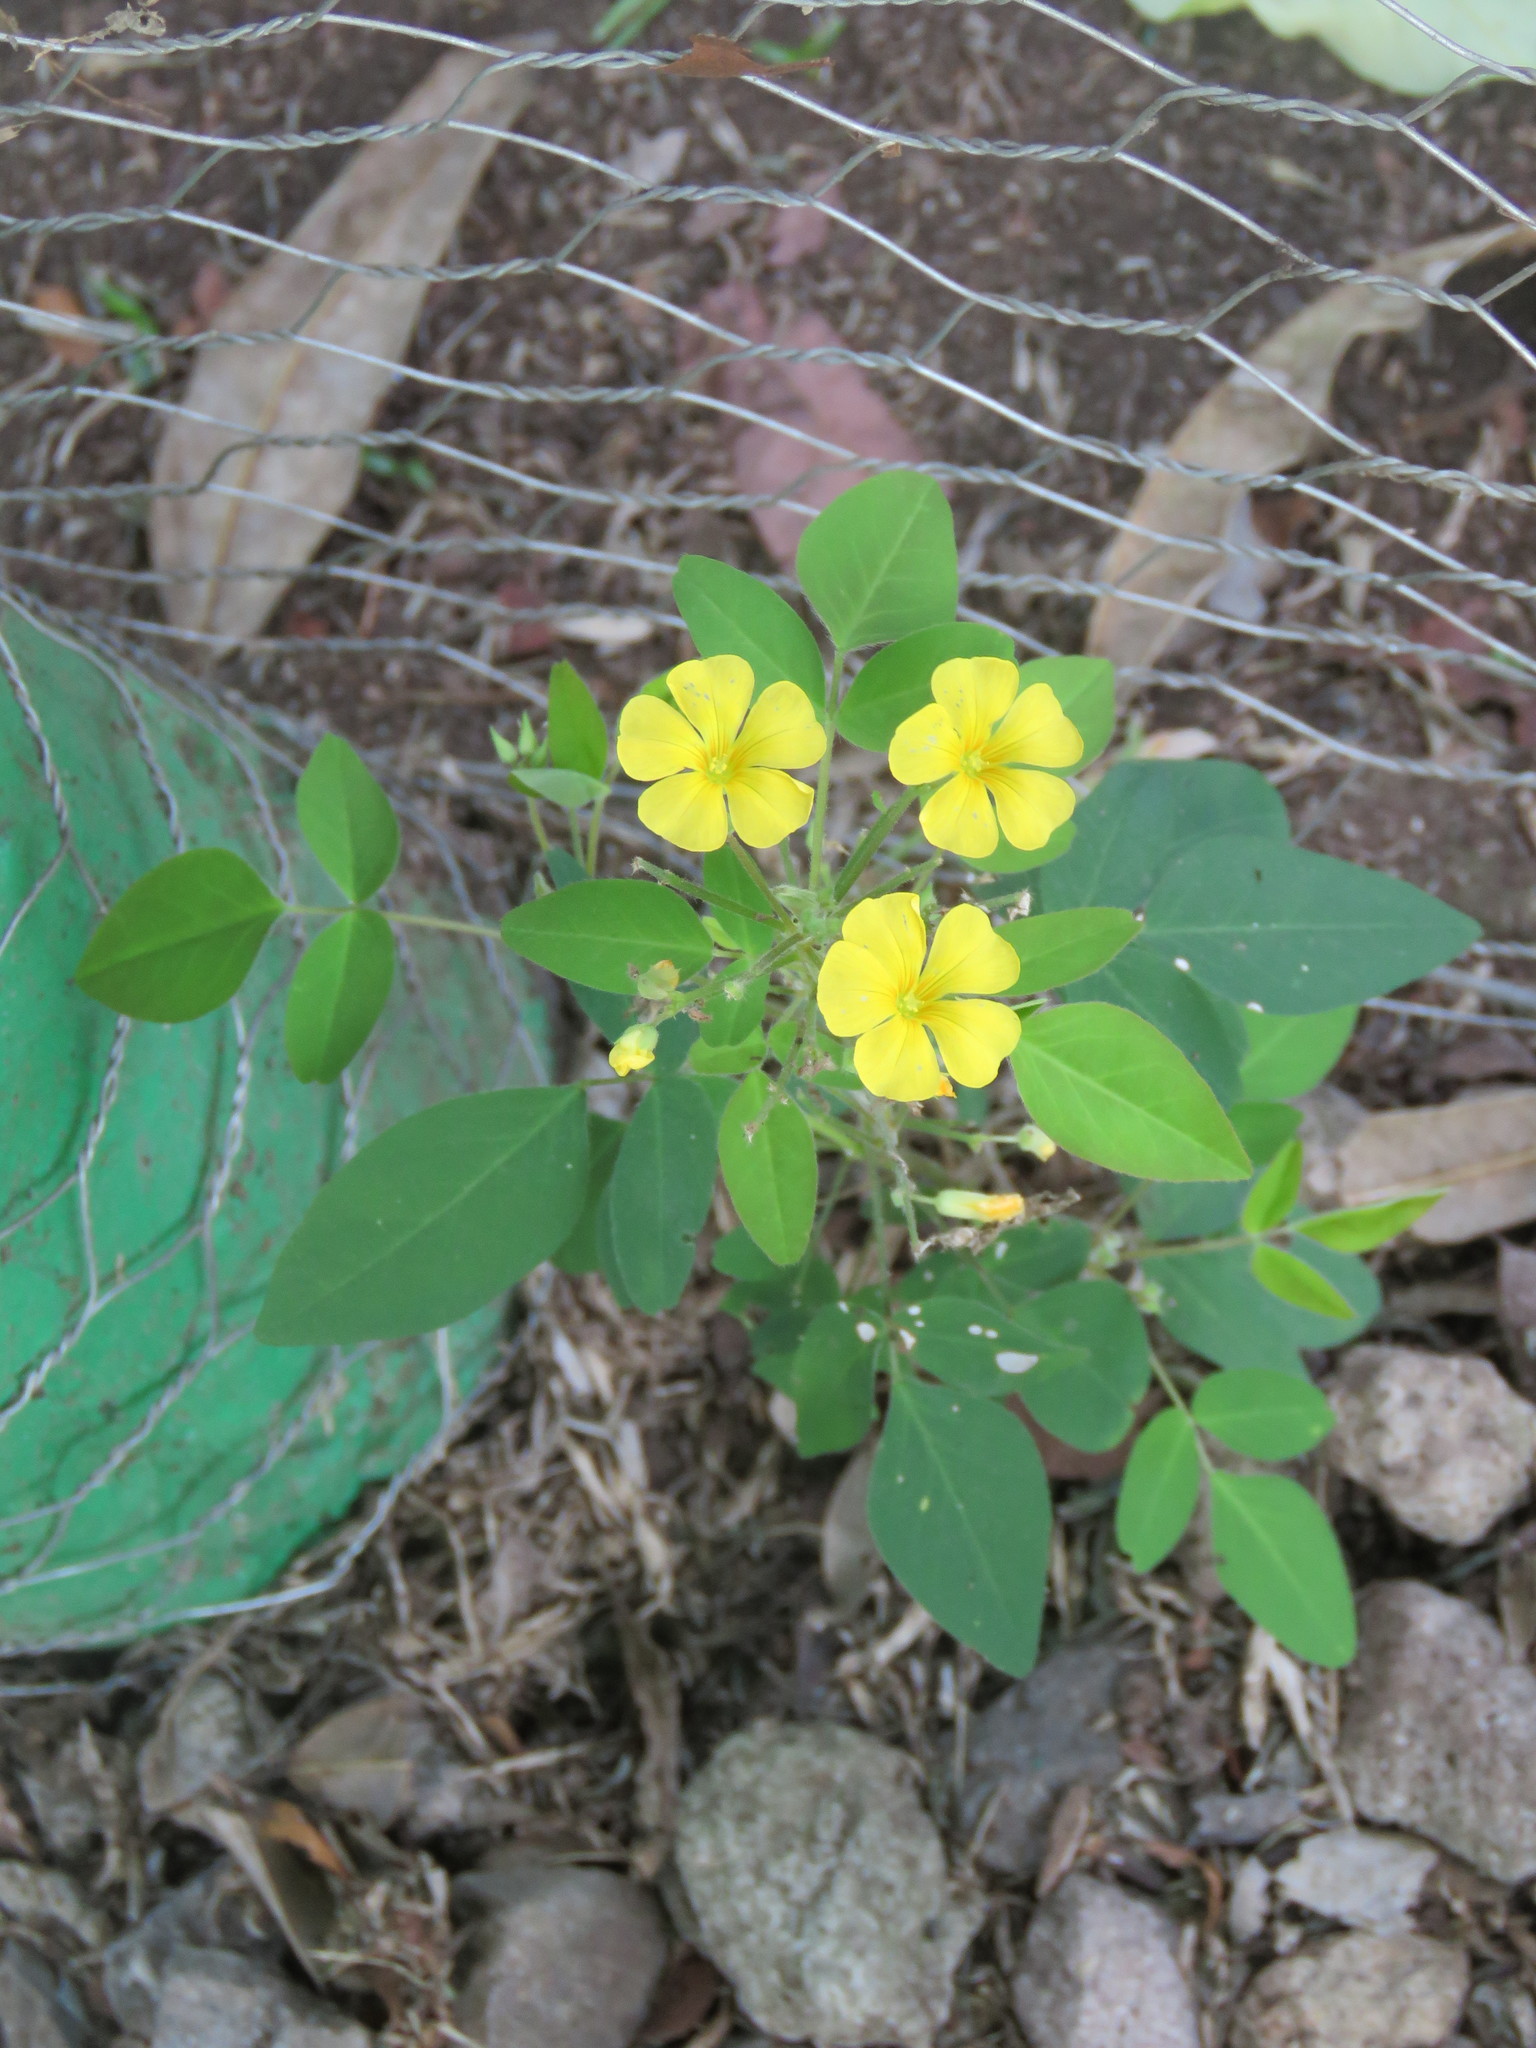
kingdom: Plantae
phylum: Tracheophyta
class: Magnoliopsida
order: Oxalidales
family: Oxalidaceae
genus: Oxalis
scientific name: Oxalis frutescens
